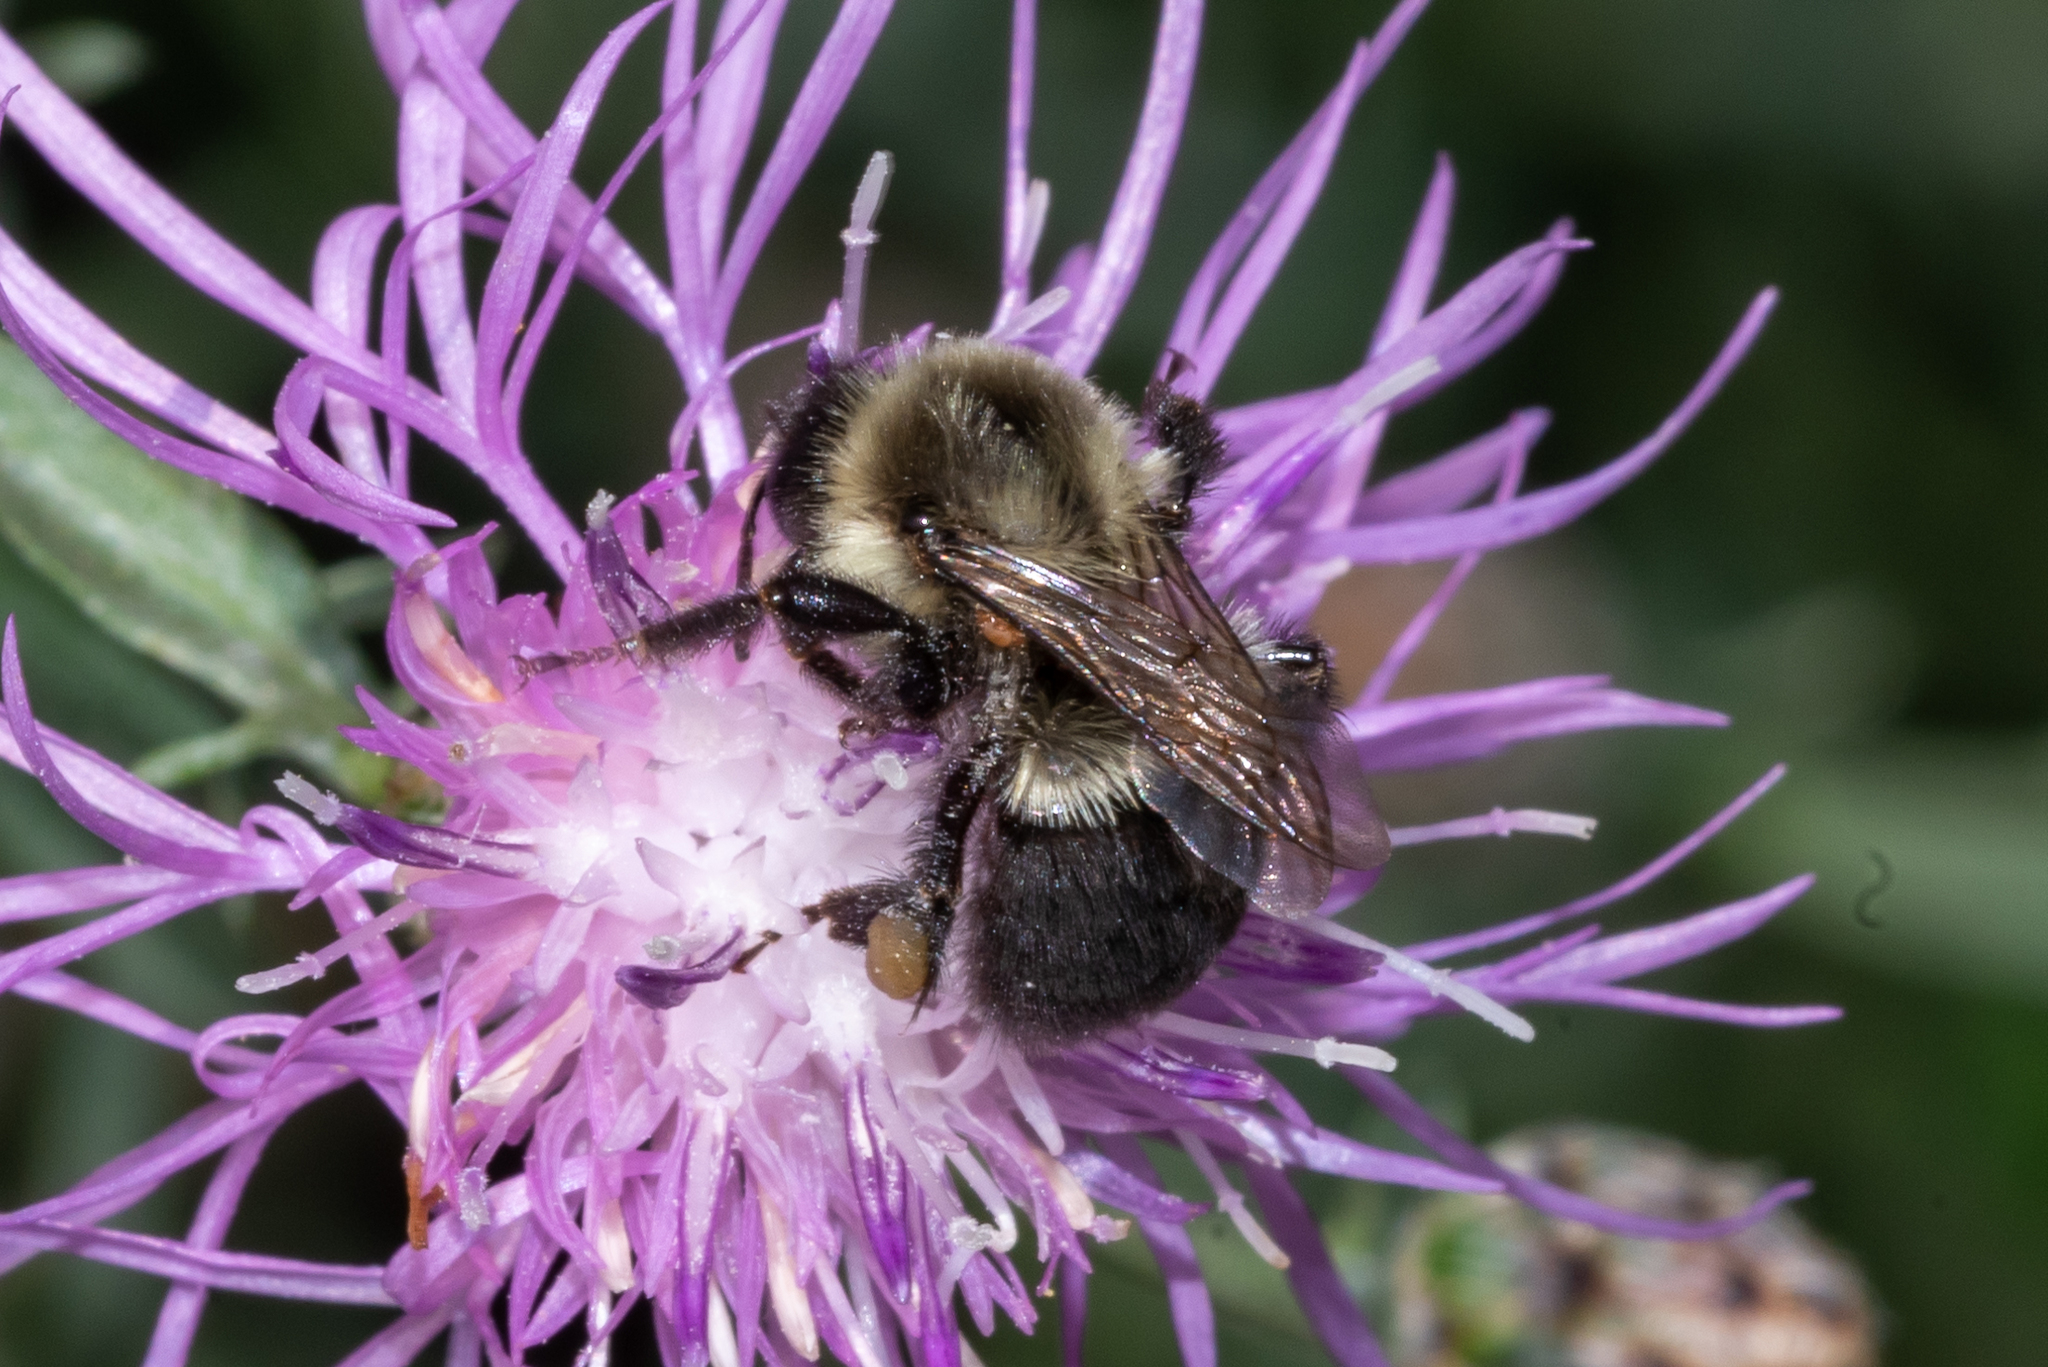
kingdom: Animalia
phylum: Arthropoda
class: Insecta
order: Hymenoptera
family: Apidae
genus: Bombus
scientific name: Bombus impatiens
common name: Common eastern bumble bee
